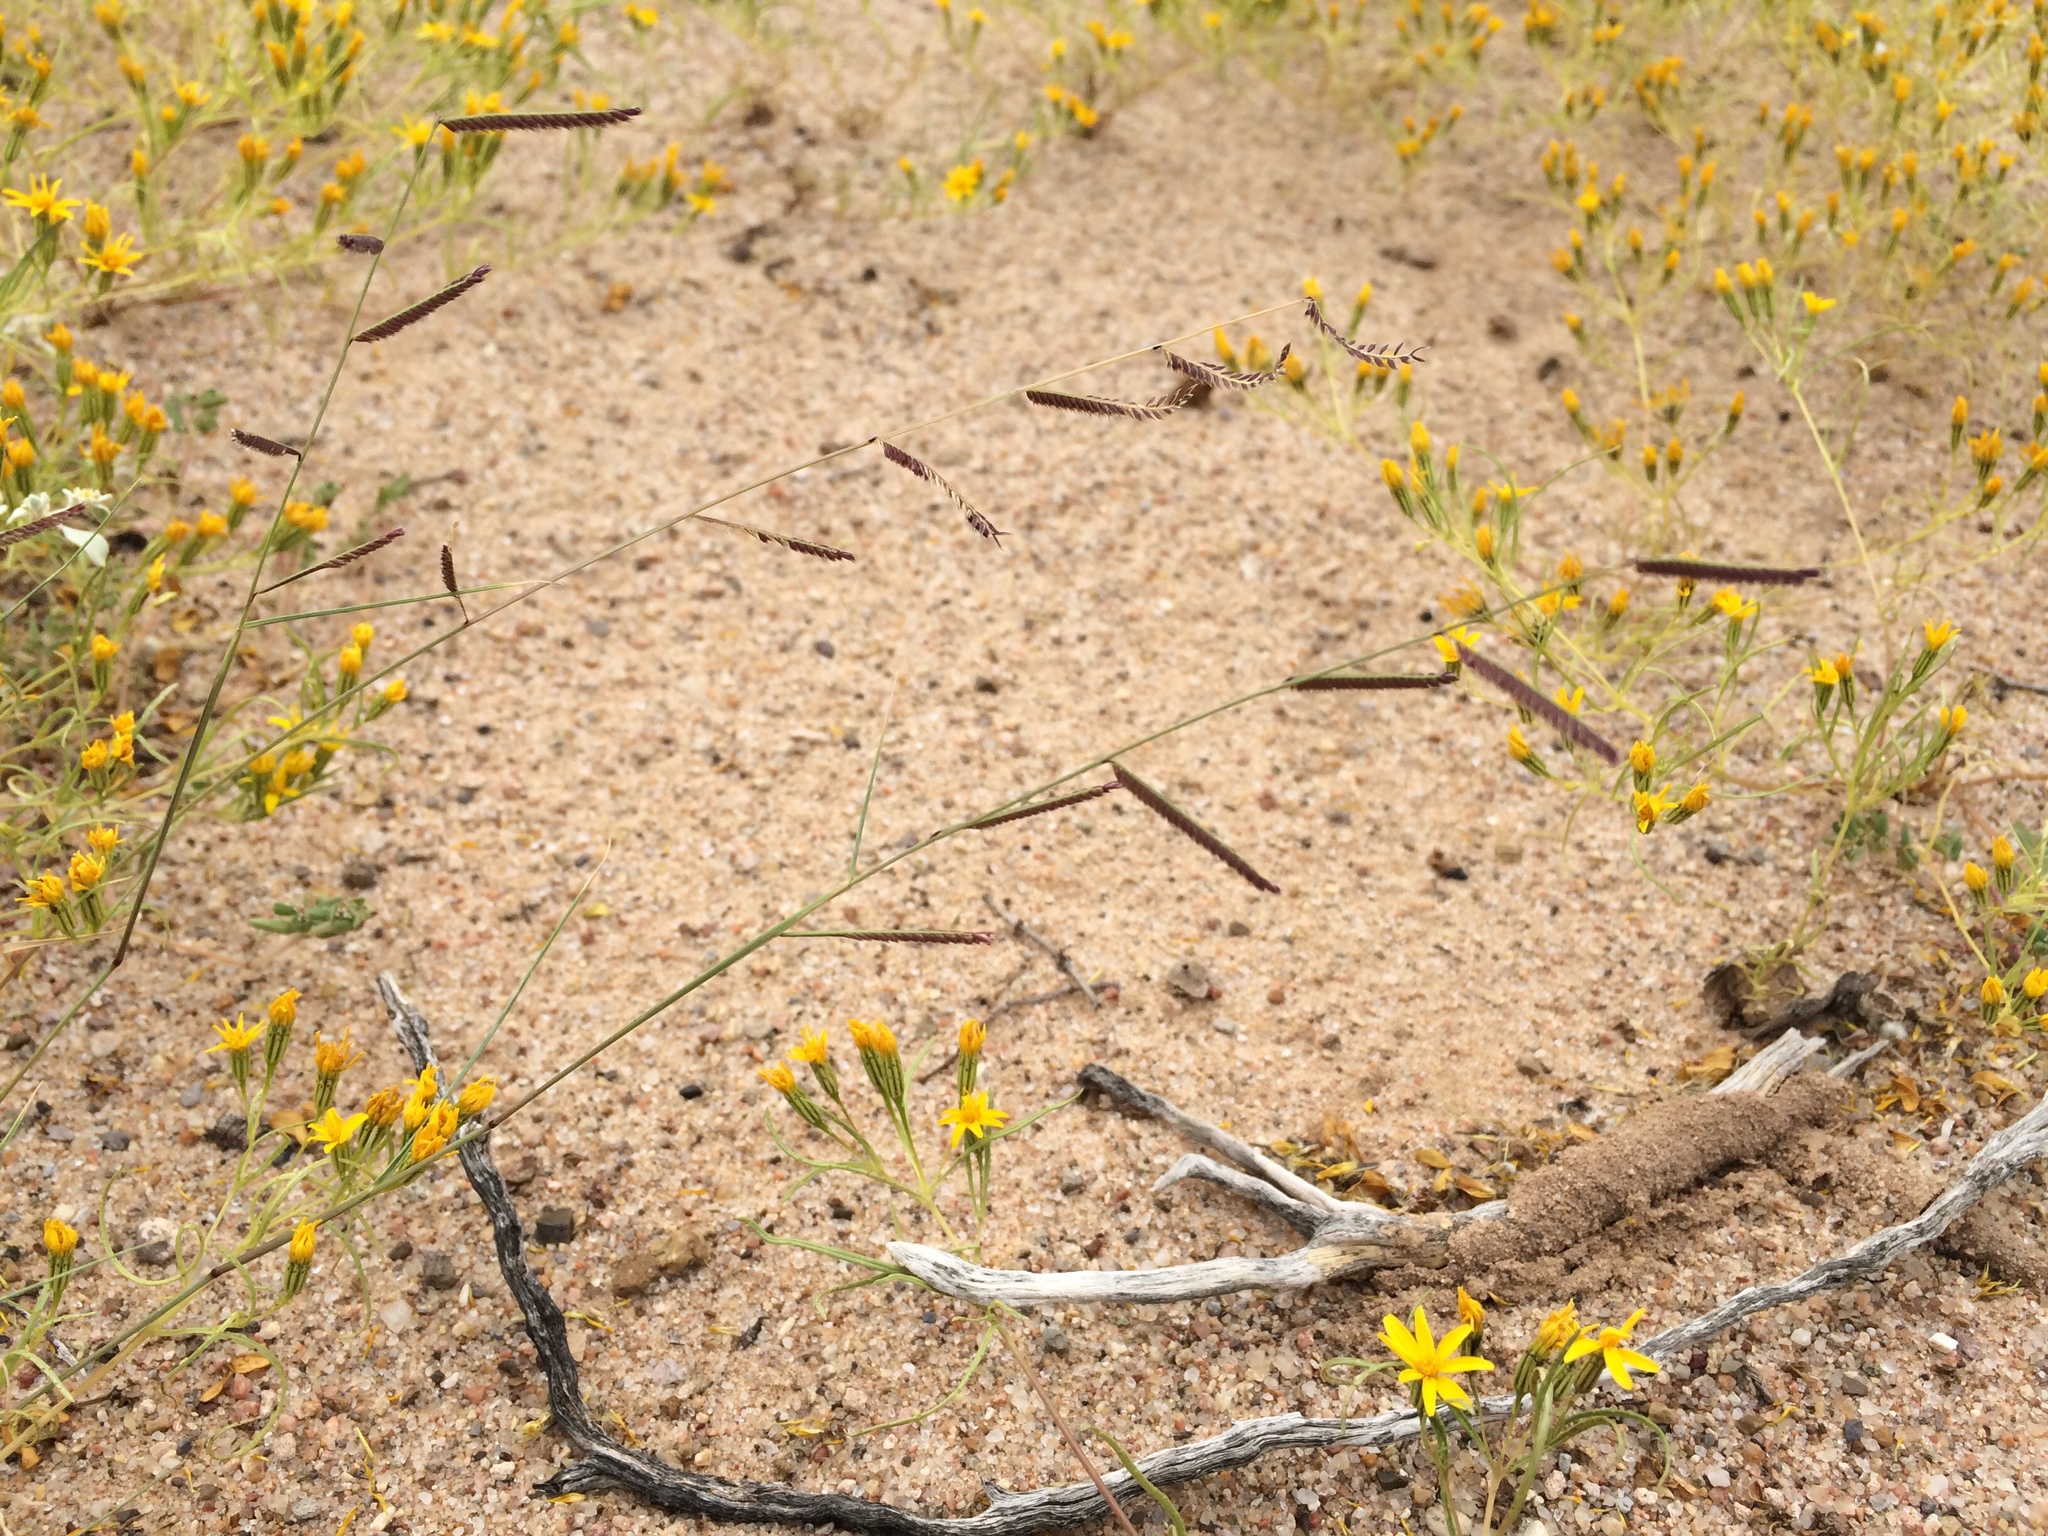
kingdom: Plantae
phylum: Tracheophyta
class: Liliopsida
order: Poales
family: Poaceae
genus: Bouteloua
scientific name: Bouteloua barbata
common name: Six-weeks grama
